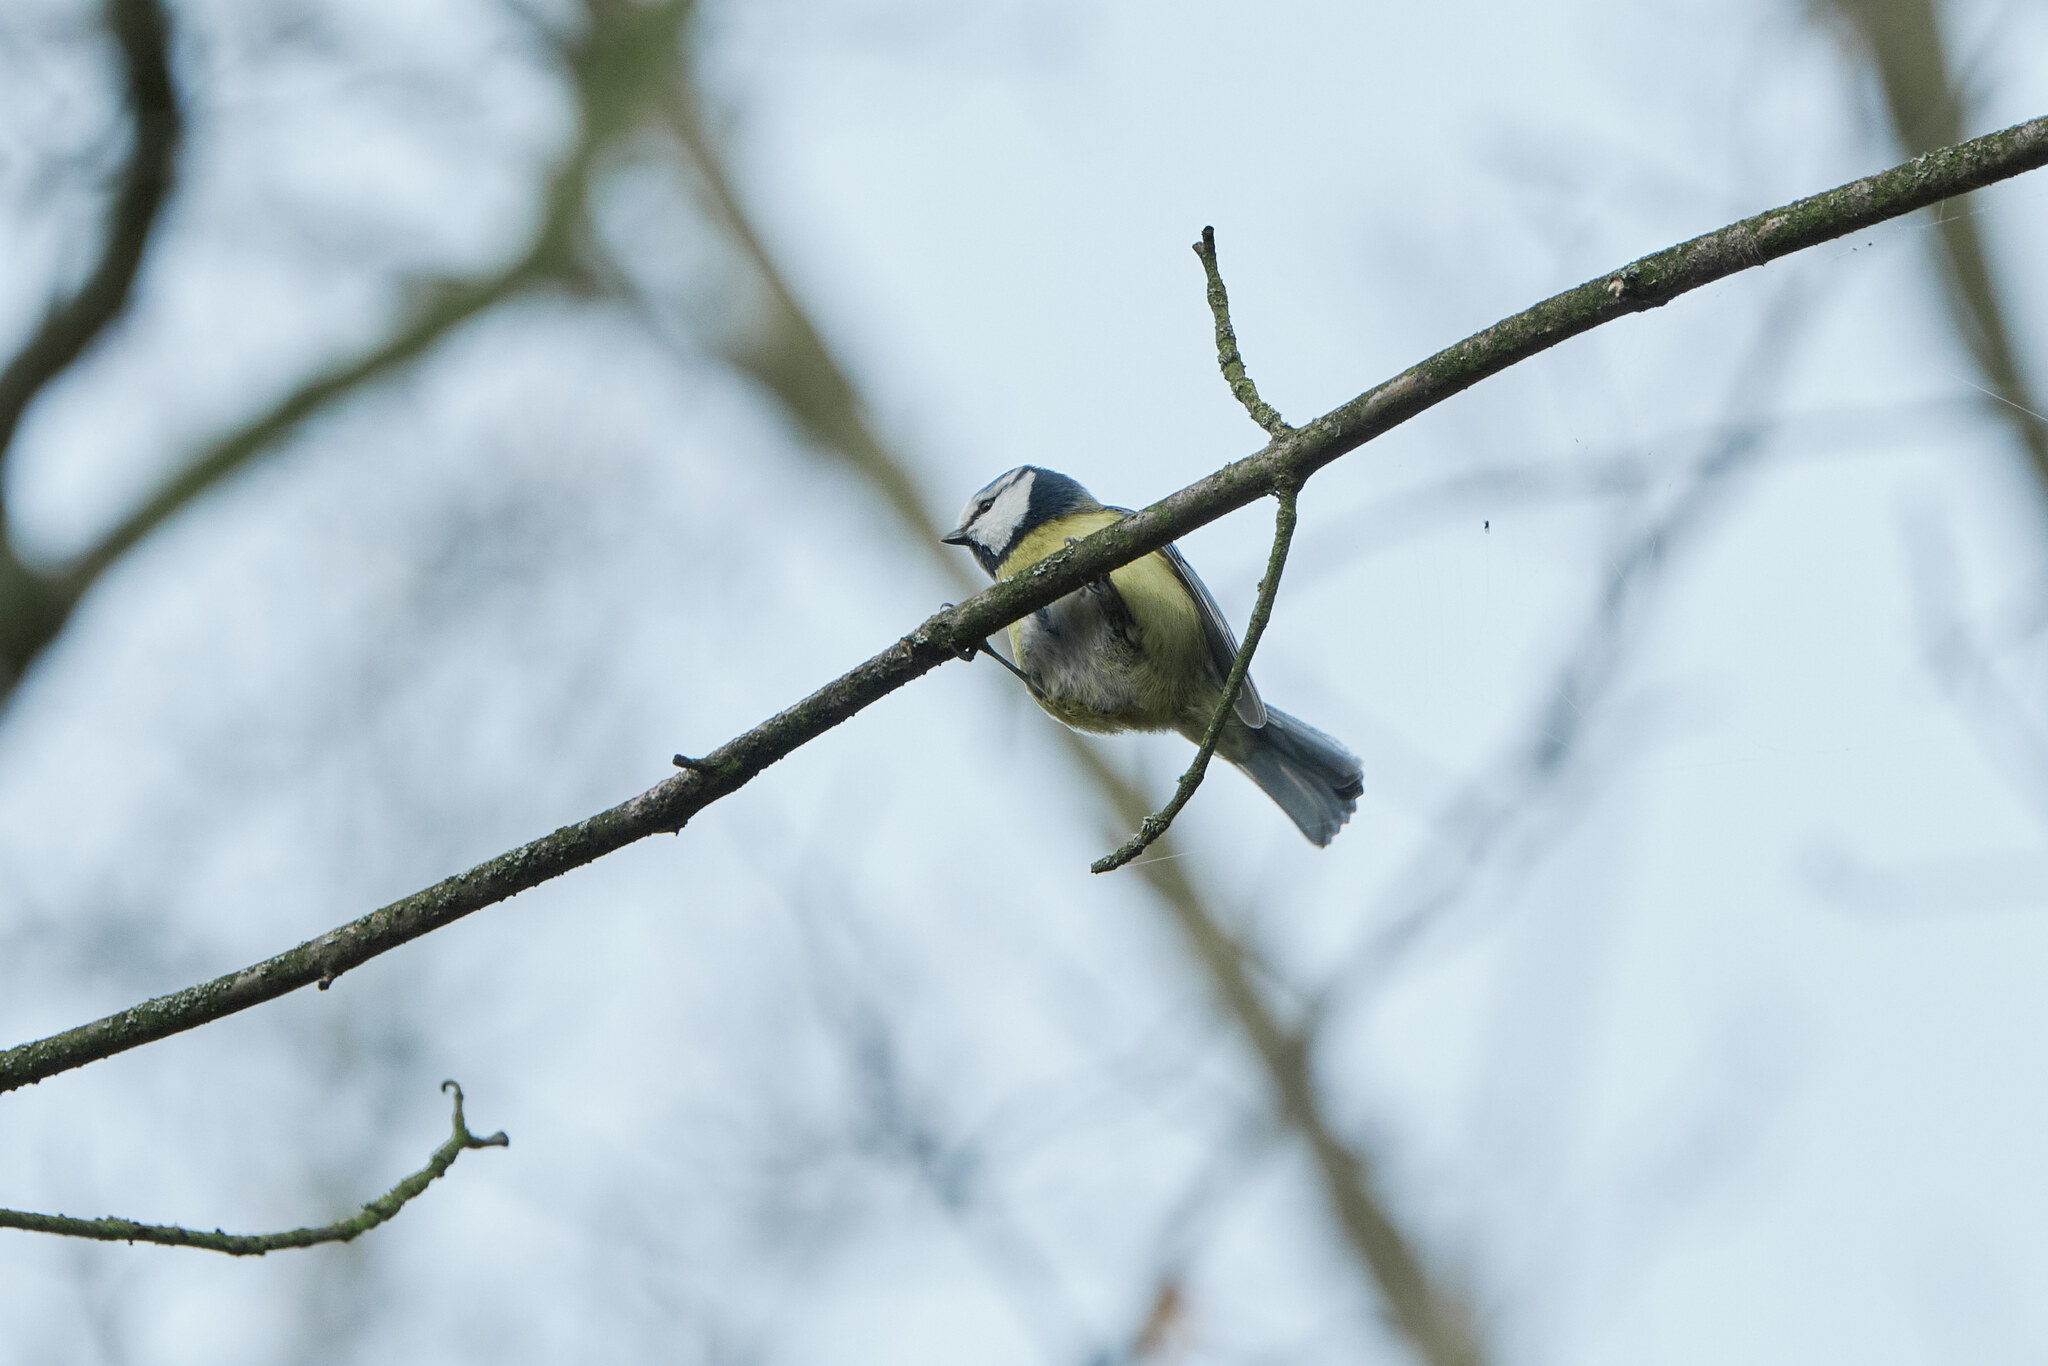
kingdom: Animalia
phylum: Chordata
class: Aves
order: Passeriformes
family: Paridae
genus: Cyanistes
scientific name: Cyanistes caeruleus
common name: Eurasian blue tit
